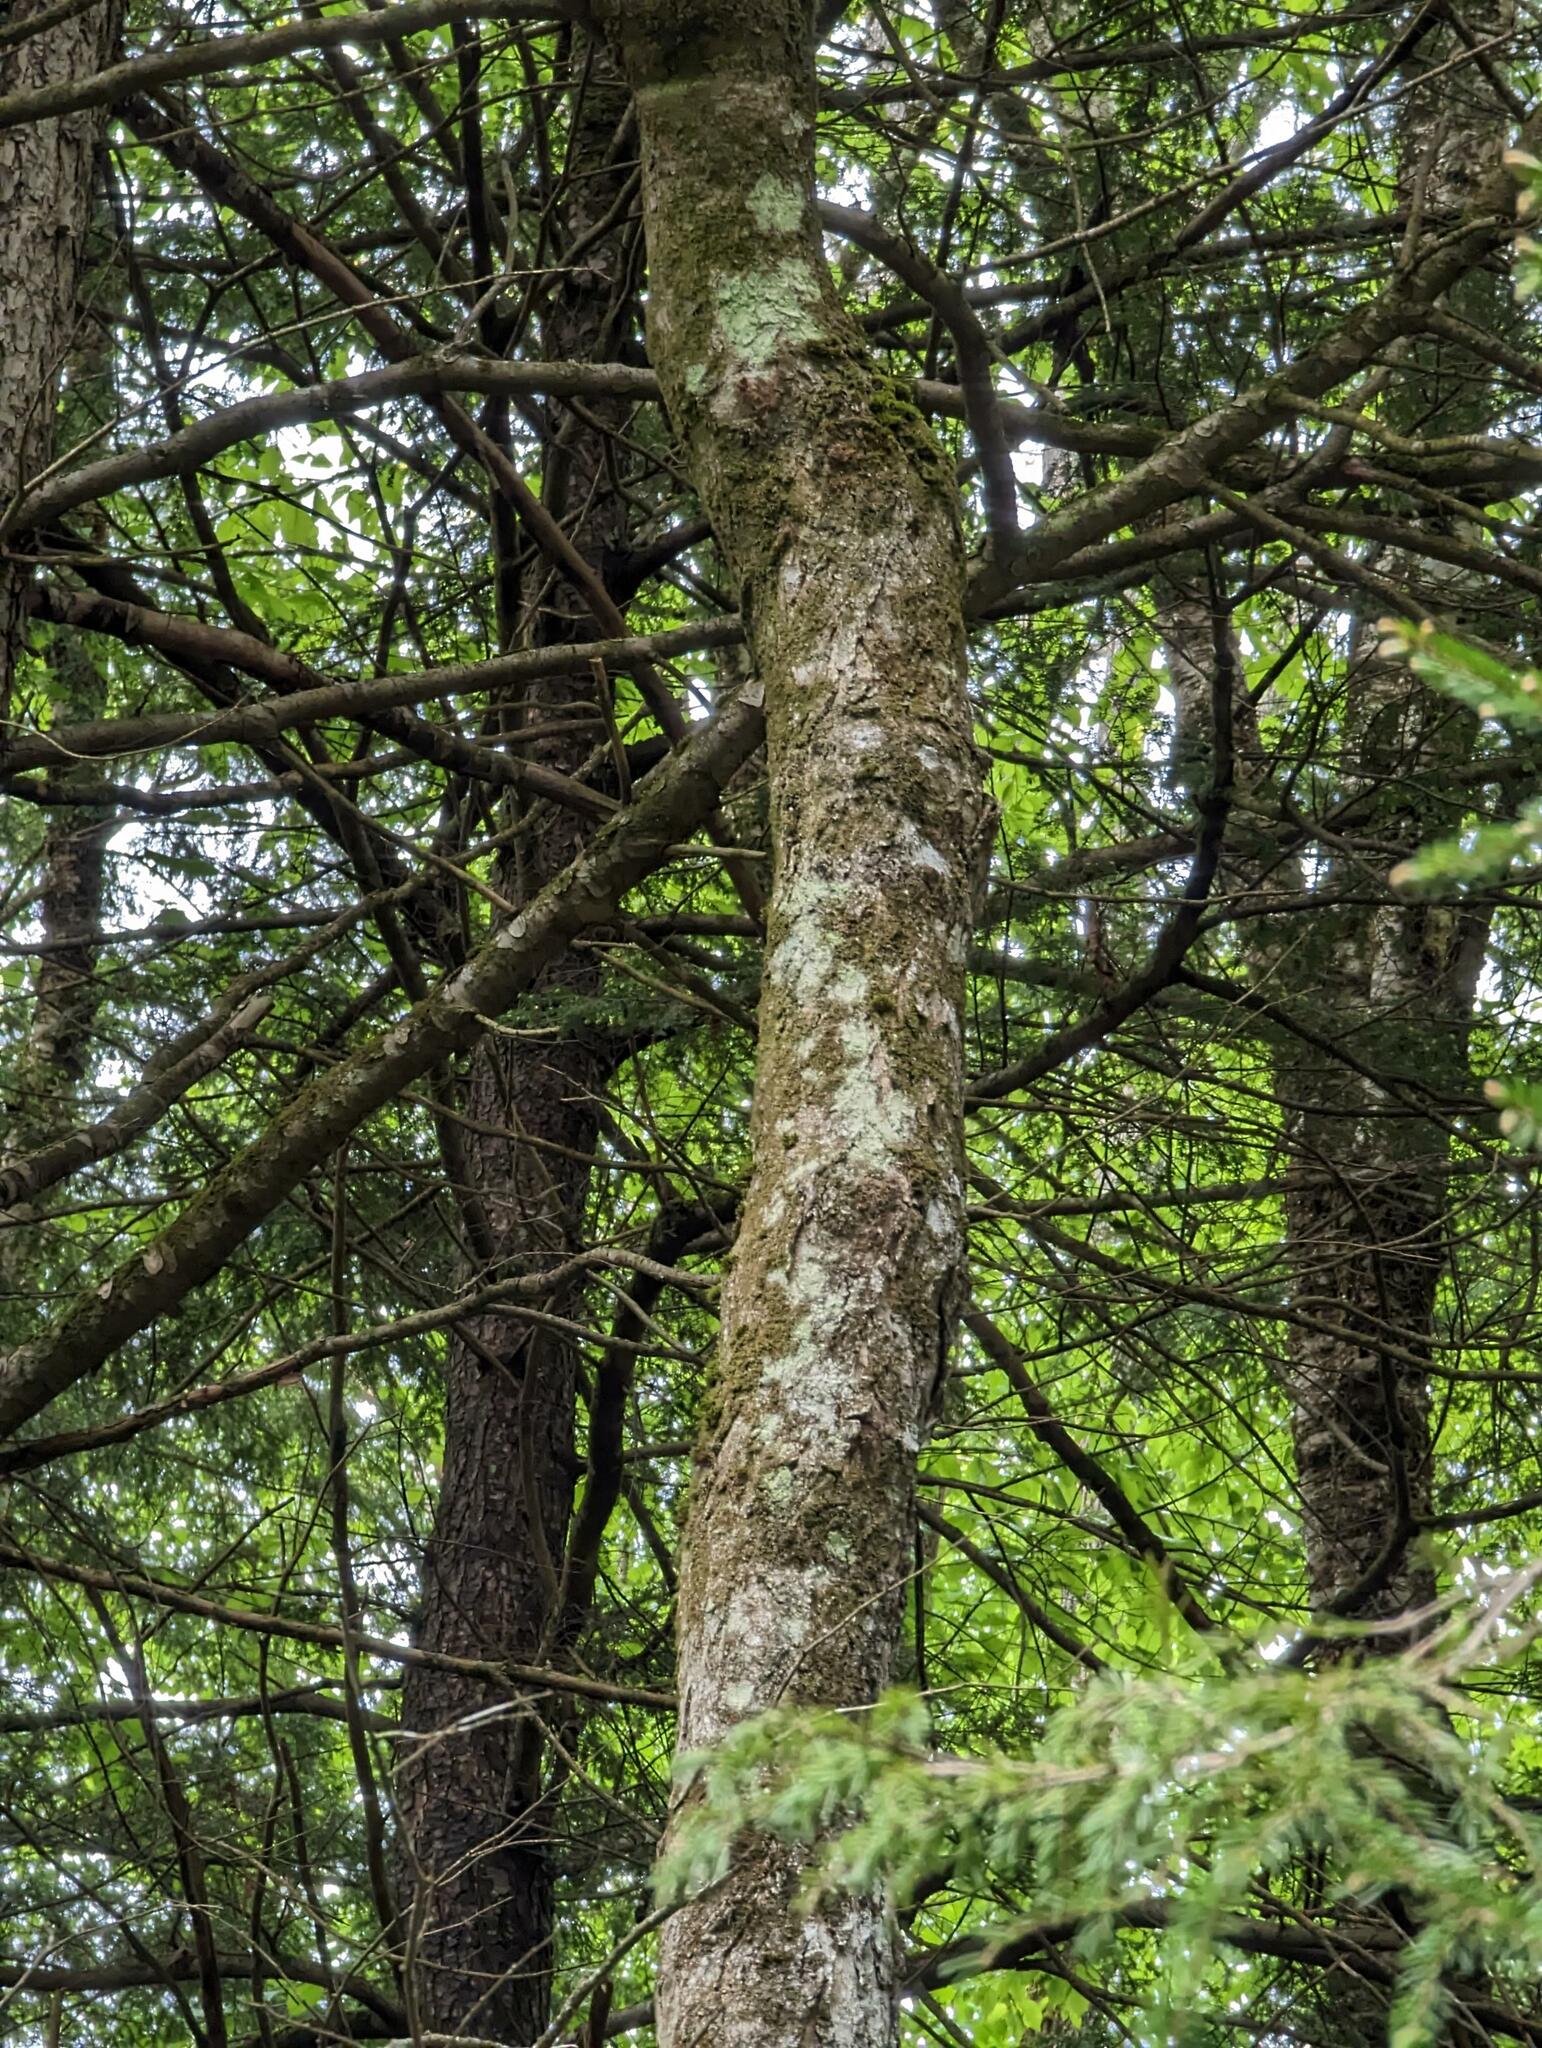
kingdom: Plantae
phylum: Tracheophyta
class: Magnoliopsida
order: Sapindales
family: Sapindaceae
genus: Acer
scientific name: Acer saccharum
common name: Sugar maple
